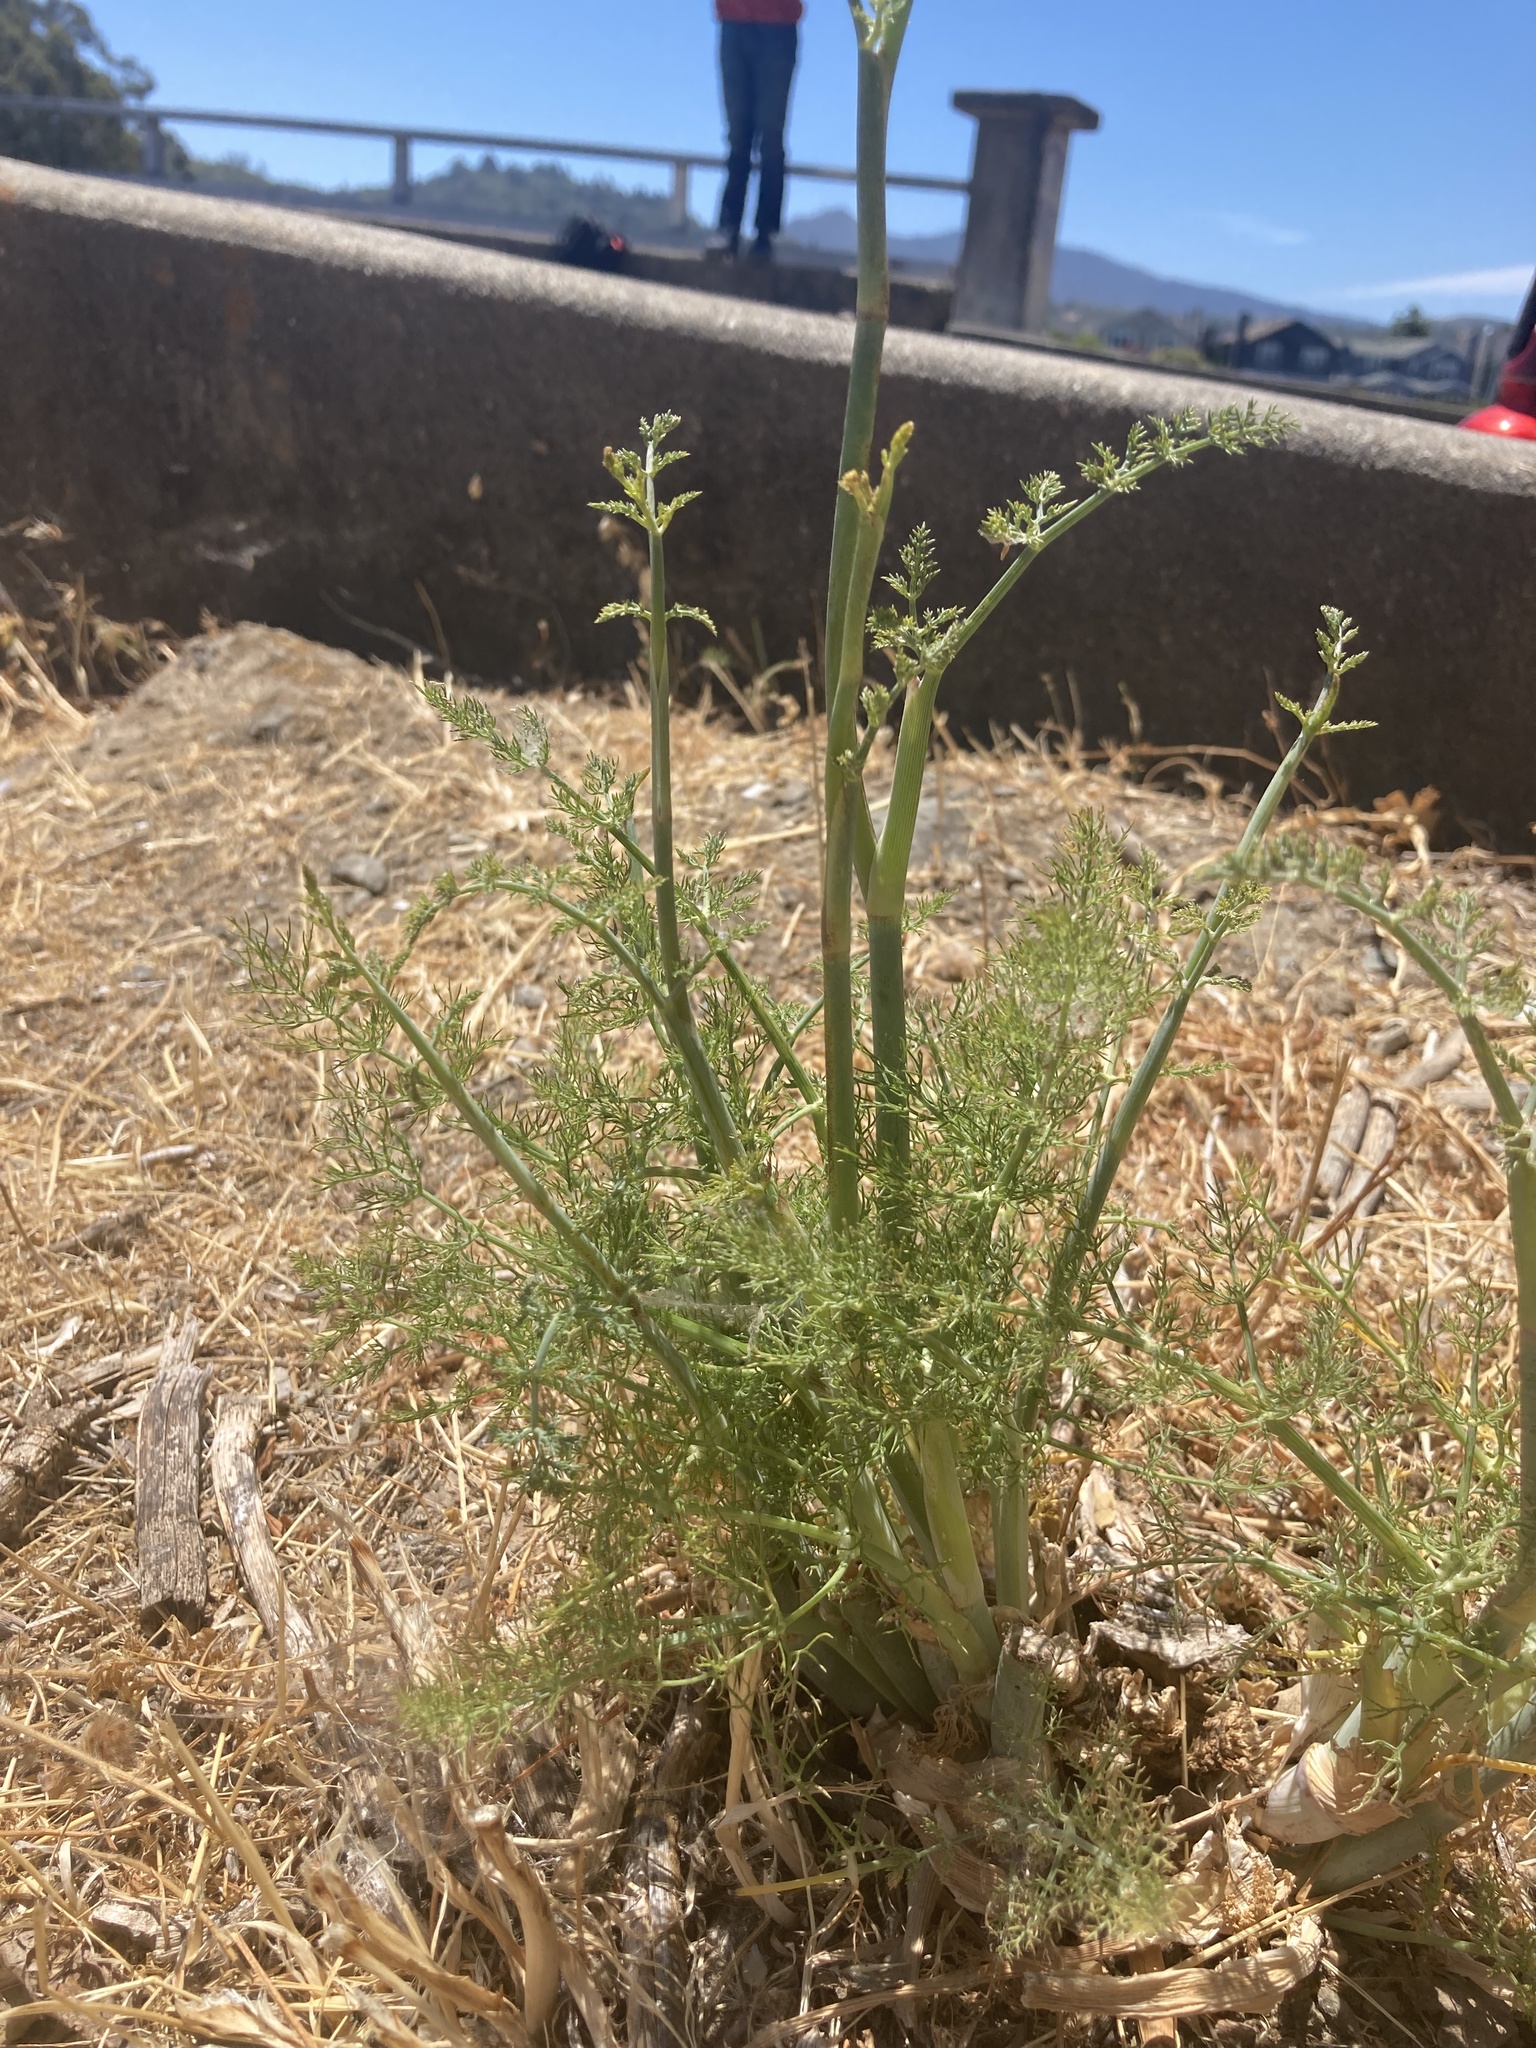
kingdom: Plantae
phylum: Tracheophyta
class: Magnoliopsida
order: Apiales
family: Apiaceae
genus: Foeniculum
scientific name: Foeniculum vulgare
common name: Fennel
